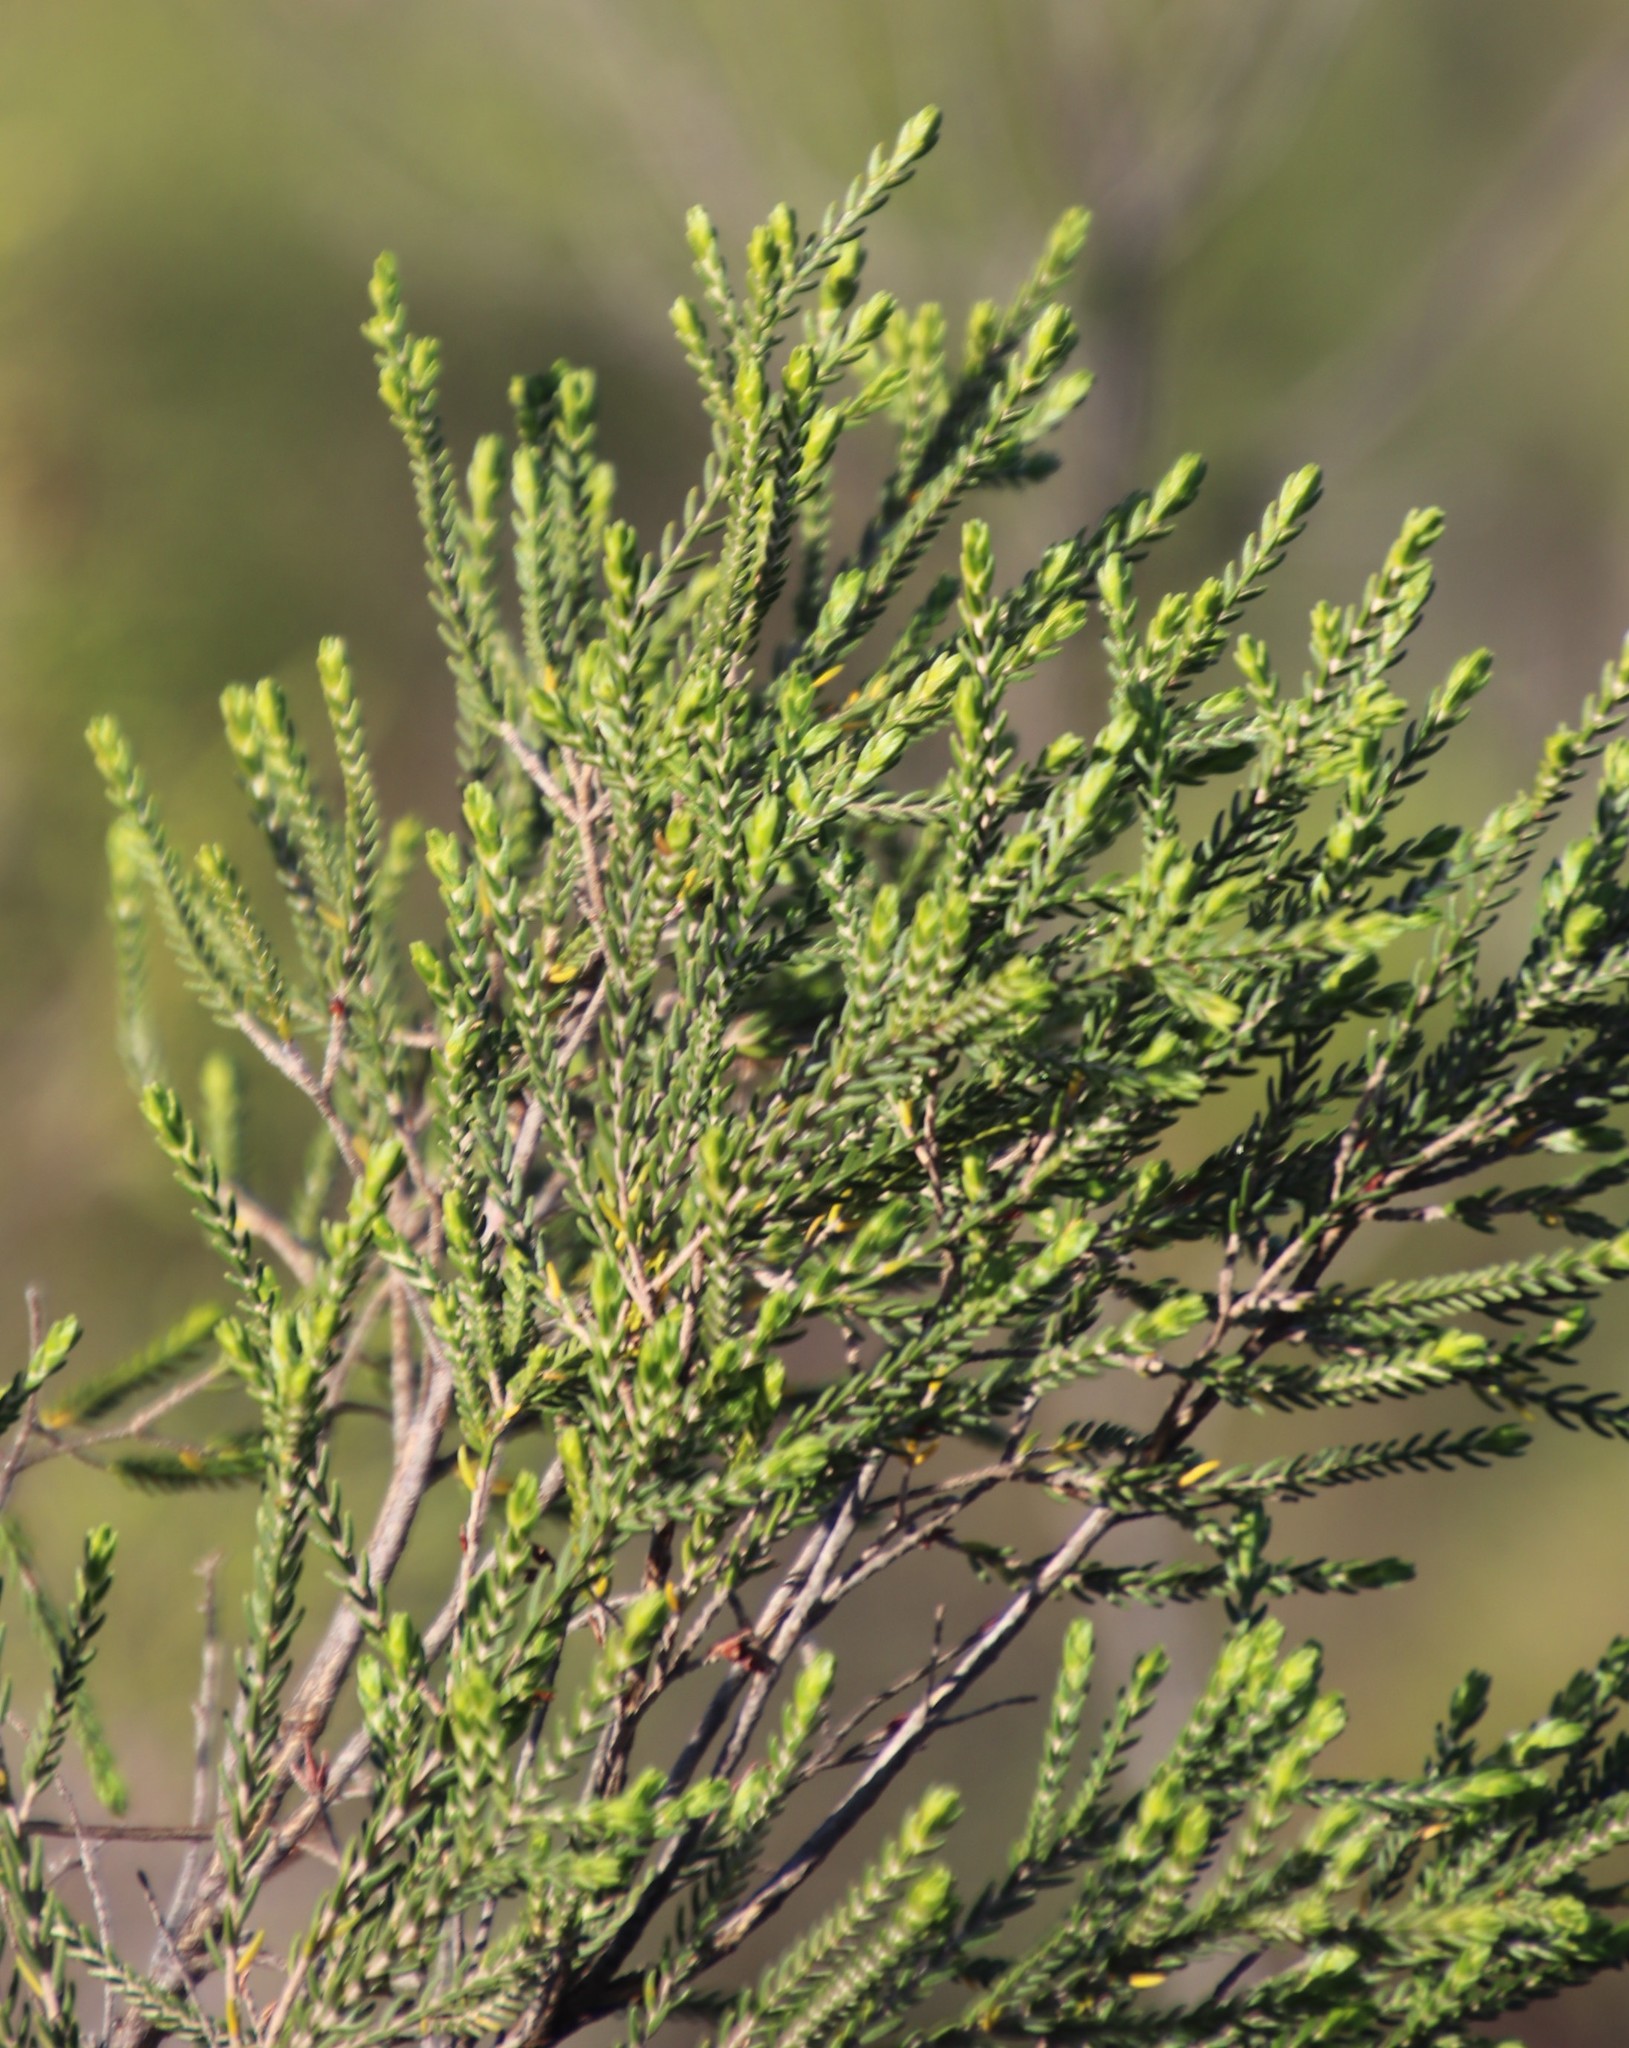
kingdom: Plantae
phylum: Tracheophyta
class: Magnoliopsida
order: Malvales
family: Thymelaeaceae
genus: Passerina
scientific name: Passerina corymbosa
